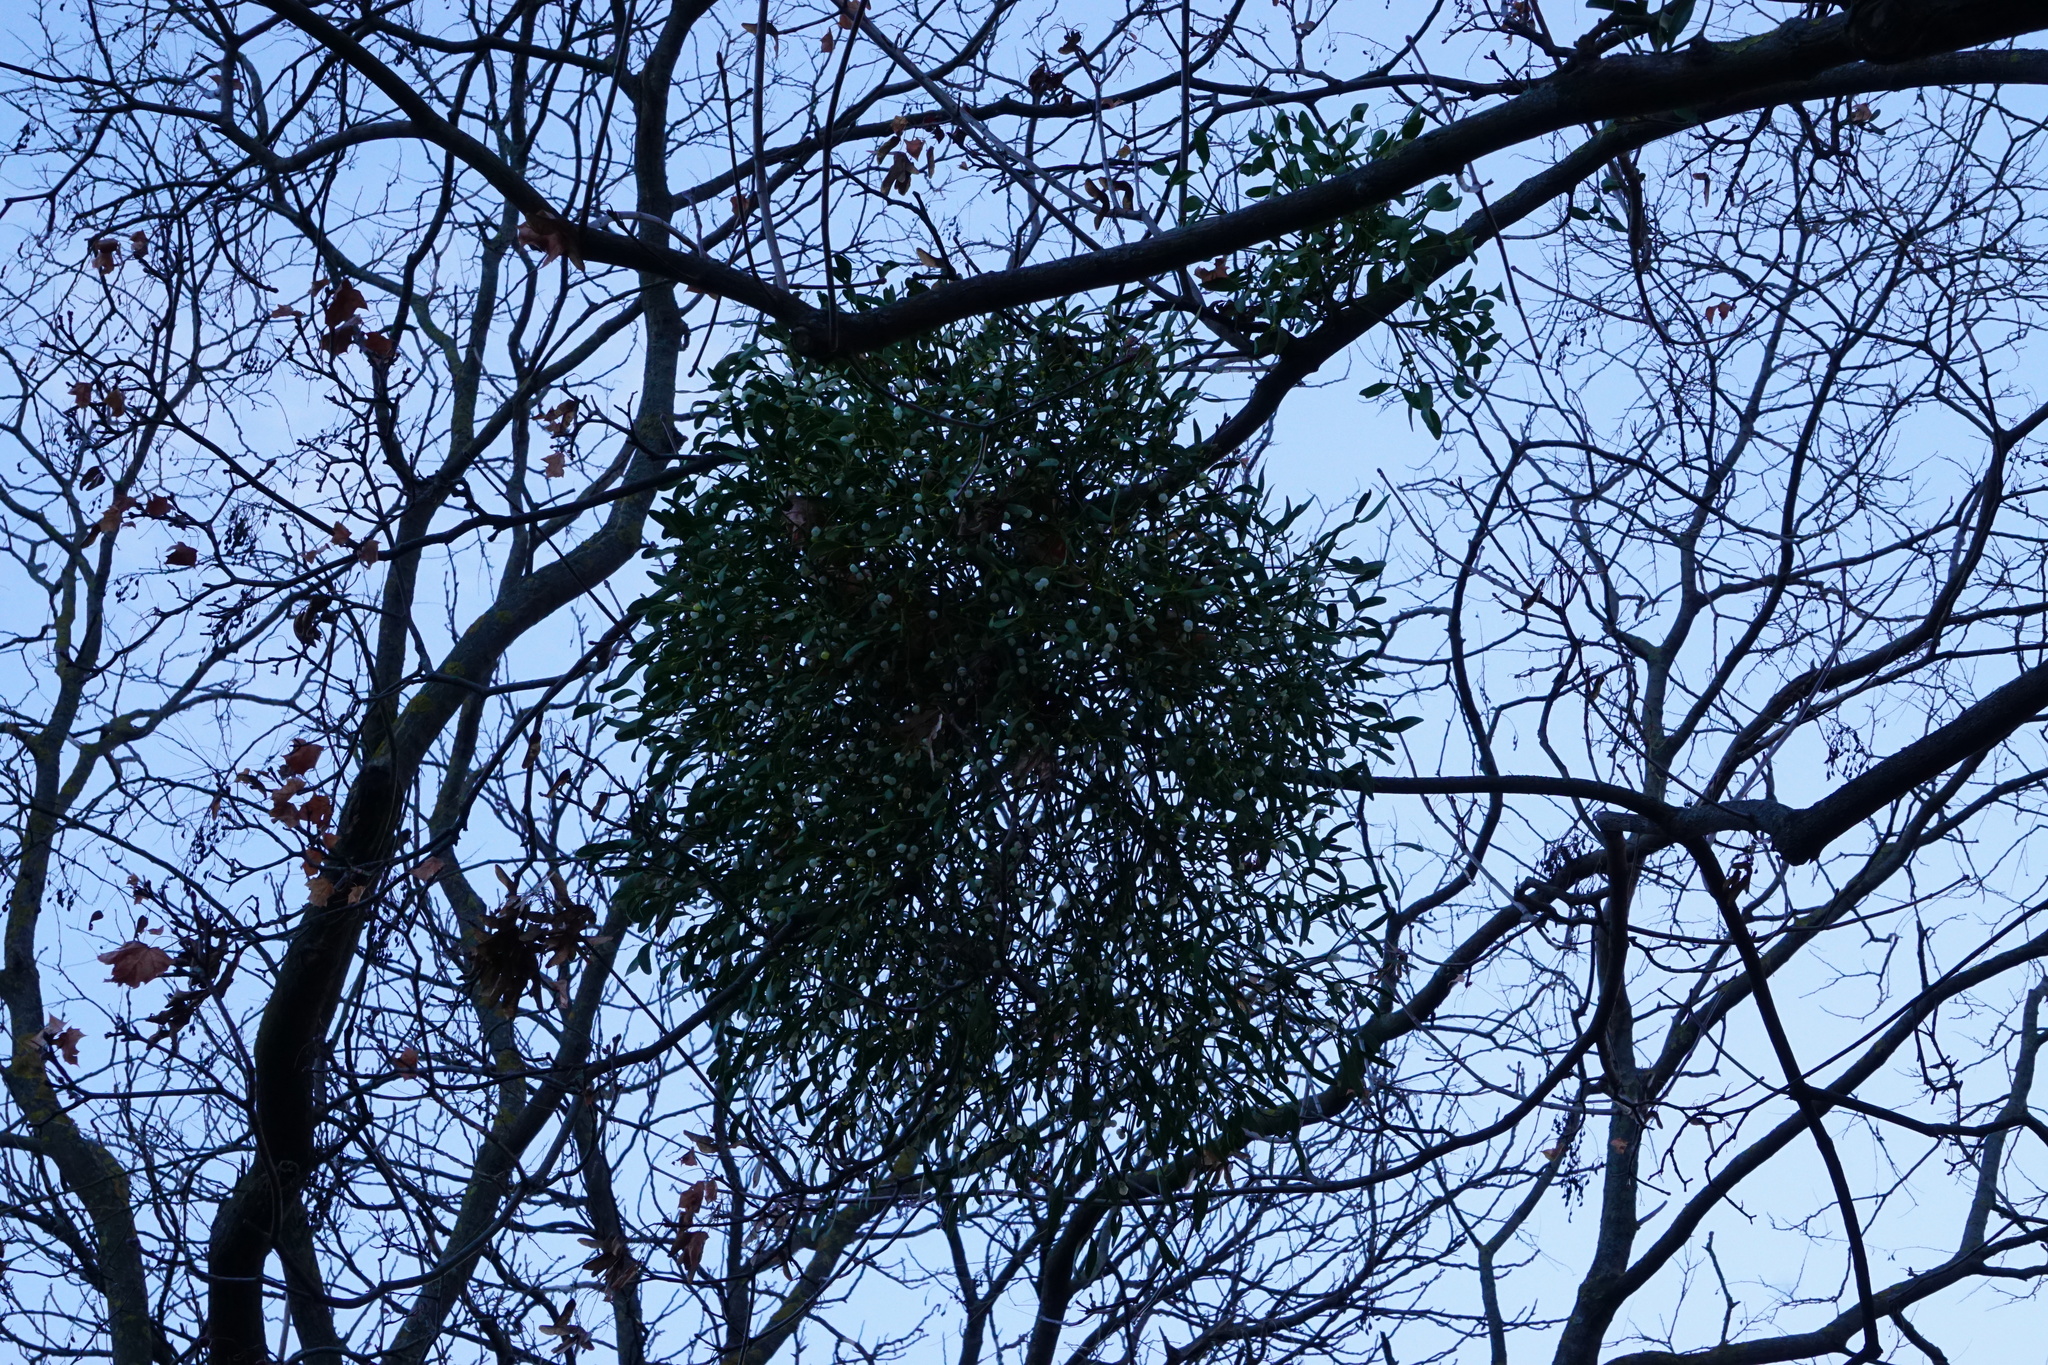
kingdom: Plantae
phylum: Tracheophyta
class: Magnoliopsida
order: Santalales
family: Viscaceae
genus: Viscum
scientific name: Viscum album
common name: Mistletoe
